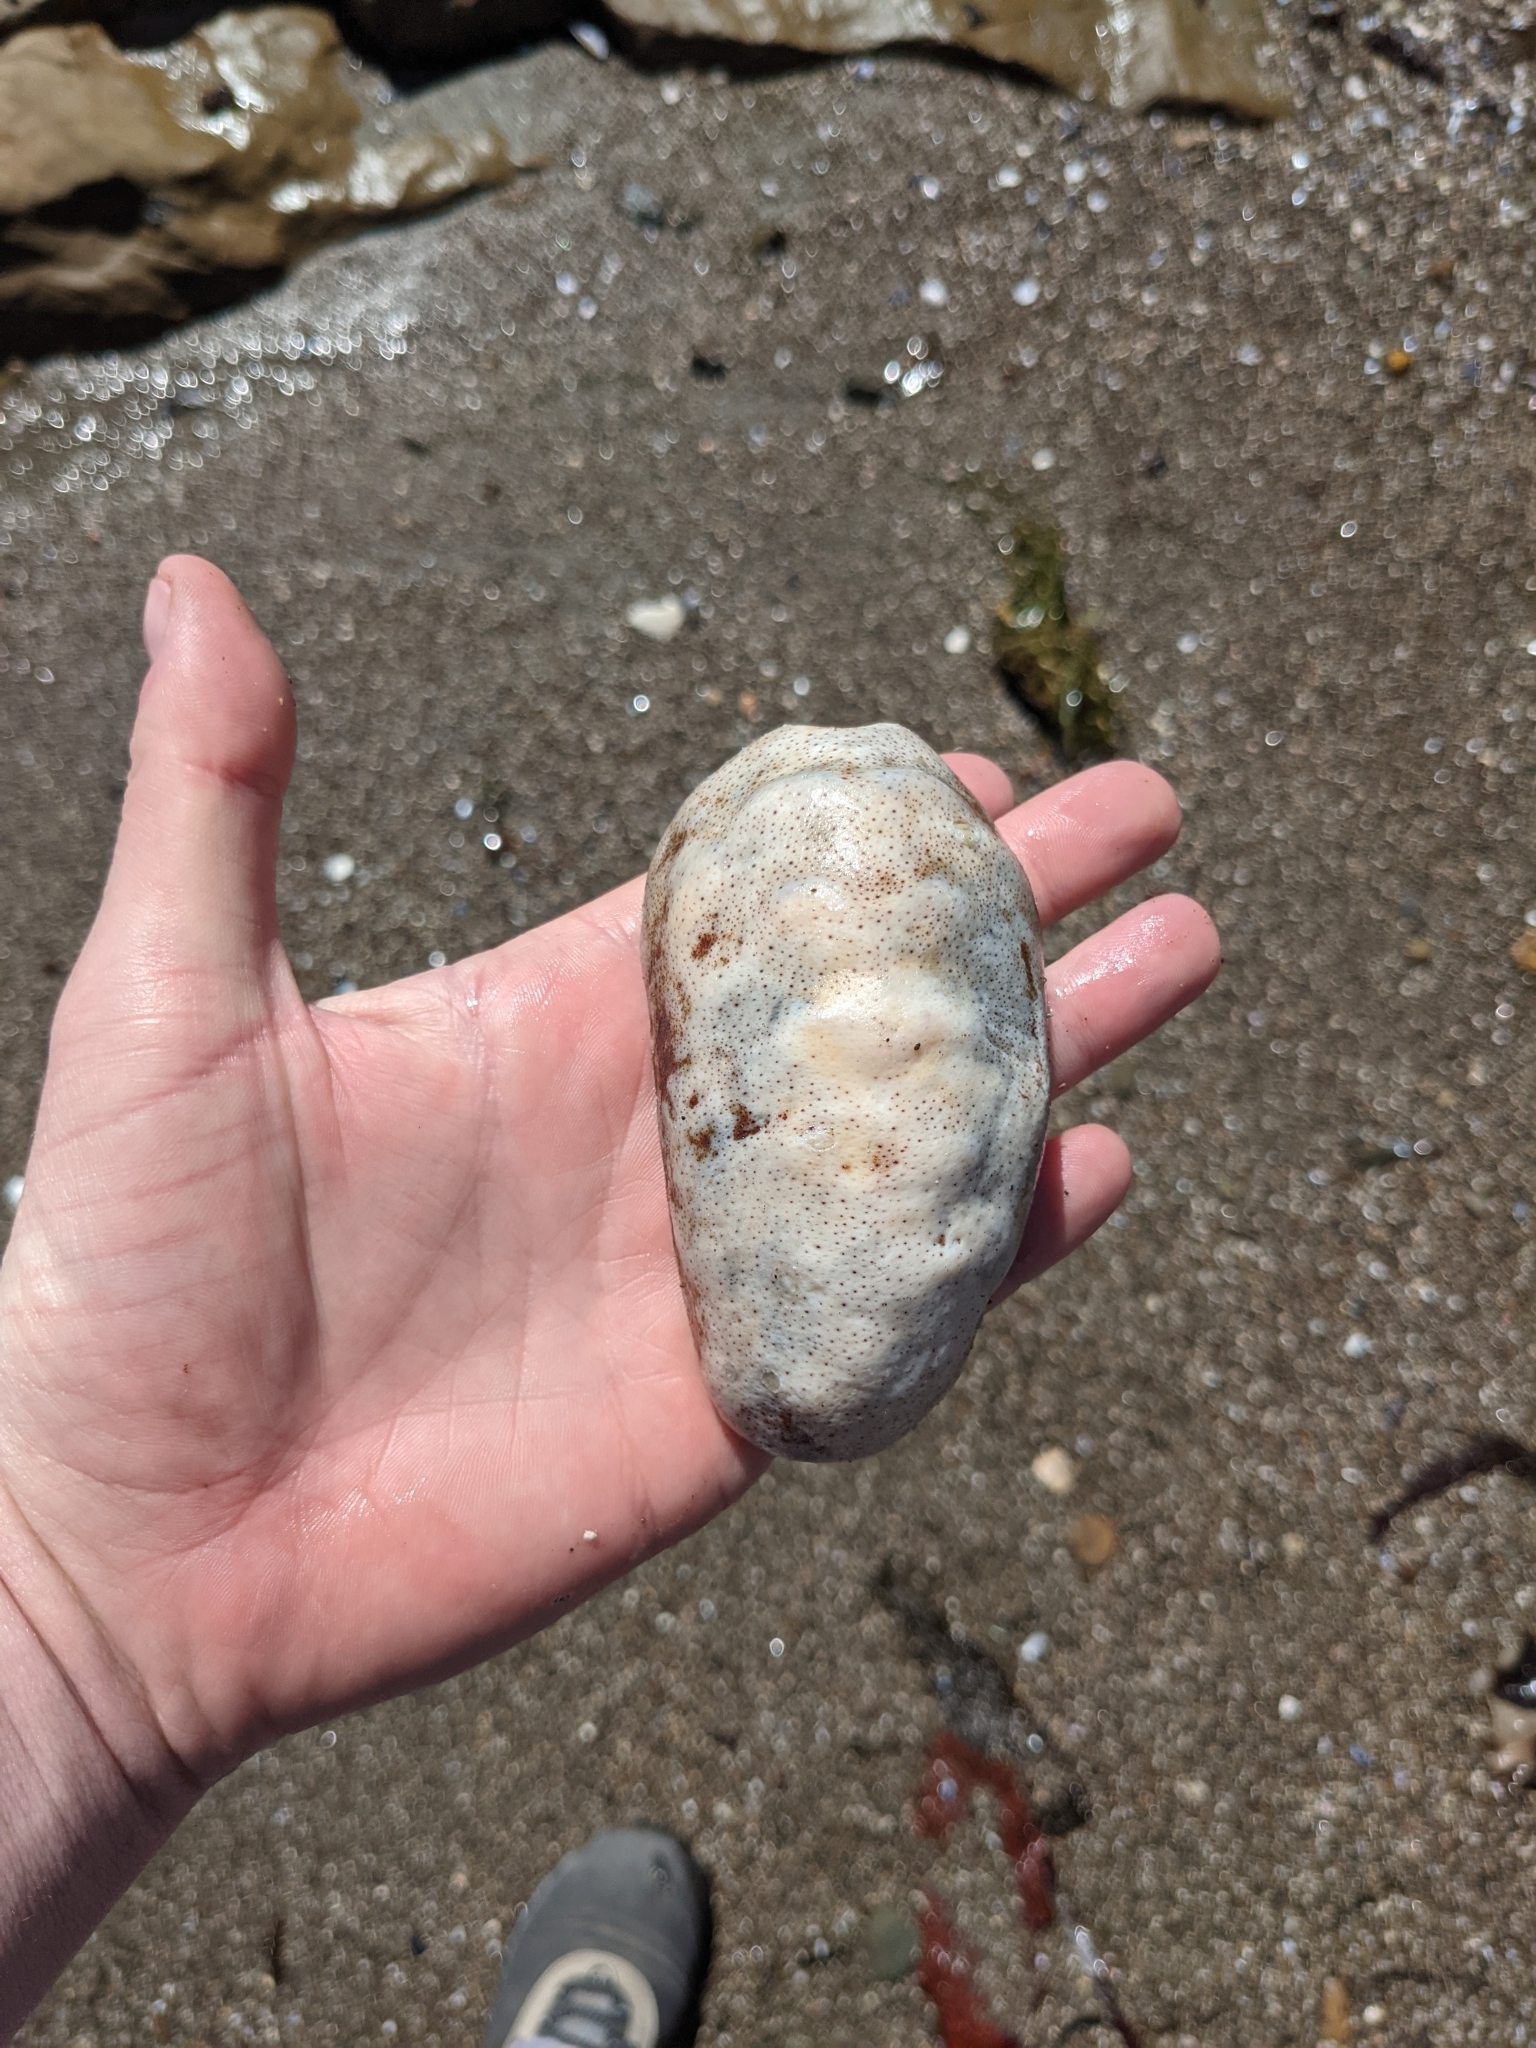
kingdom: Animalia
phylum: Mollusca
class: Polyplacophora
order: Chitonida
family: Acanthochitonidae
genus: Cryptochiton
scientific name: Cryptochiton stelleri
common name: Giant pacific chiton
